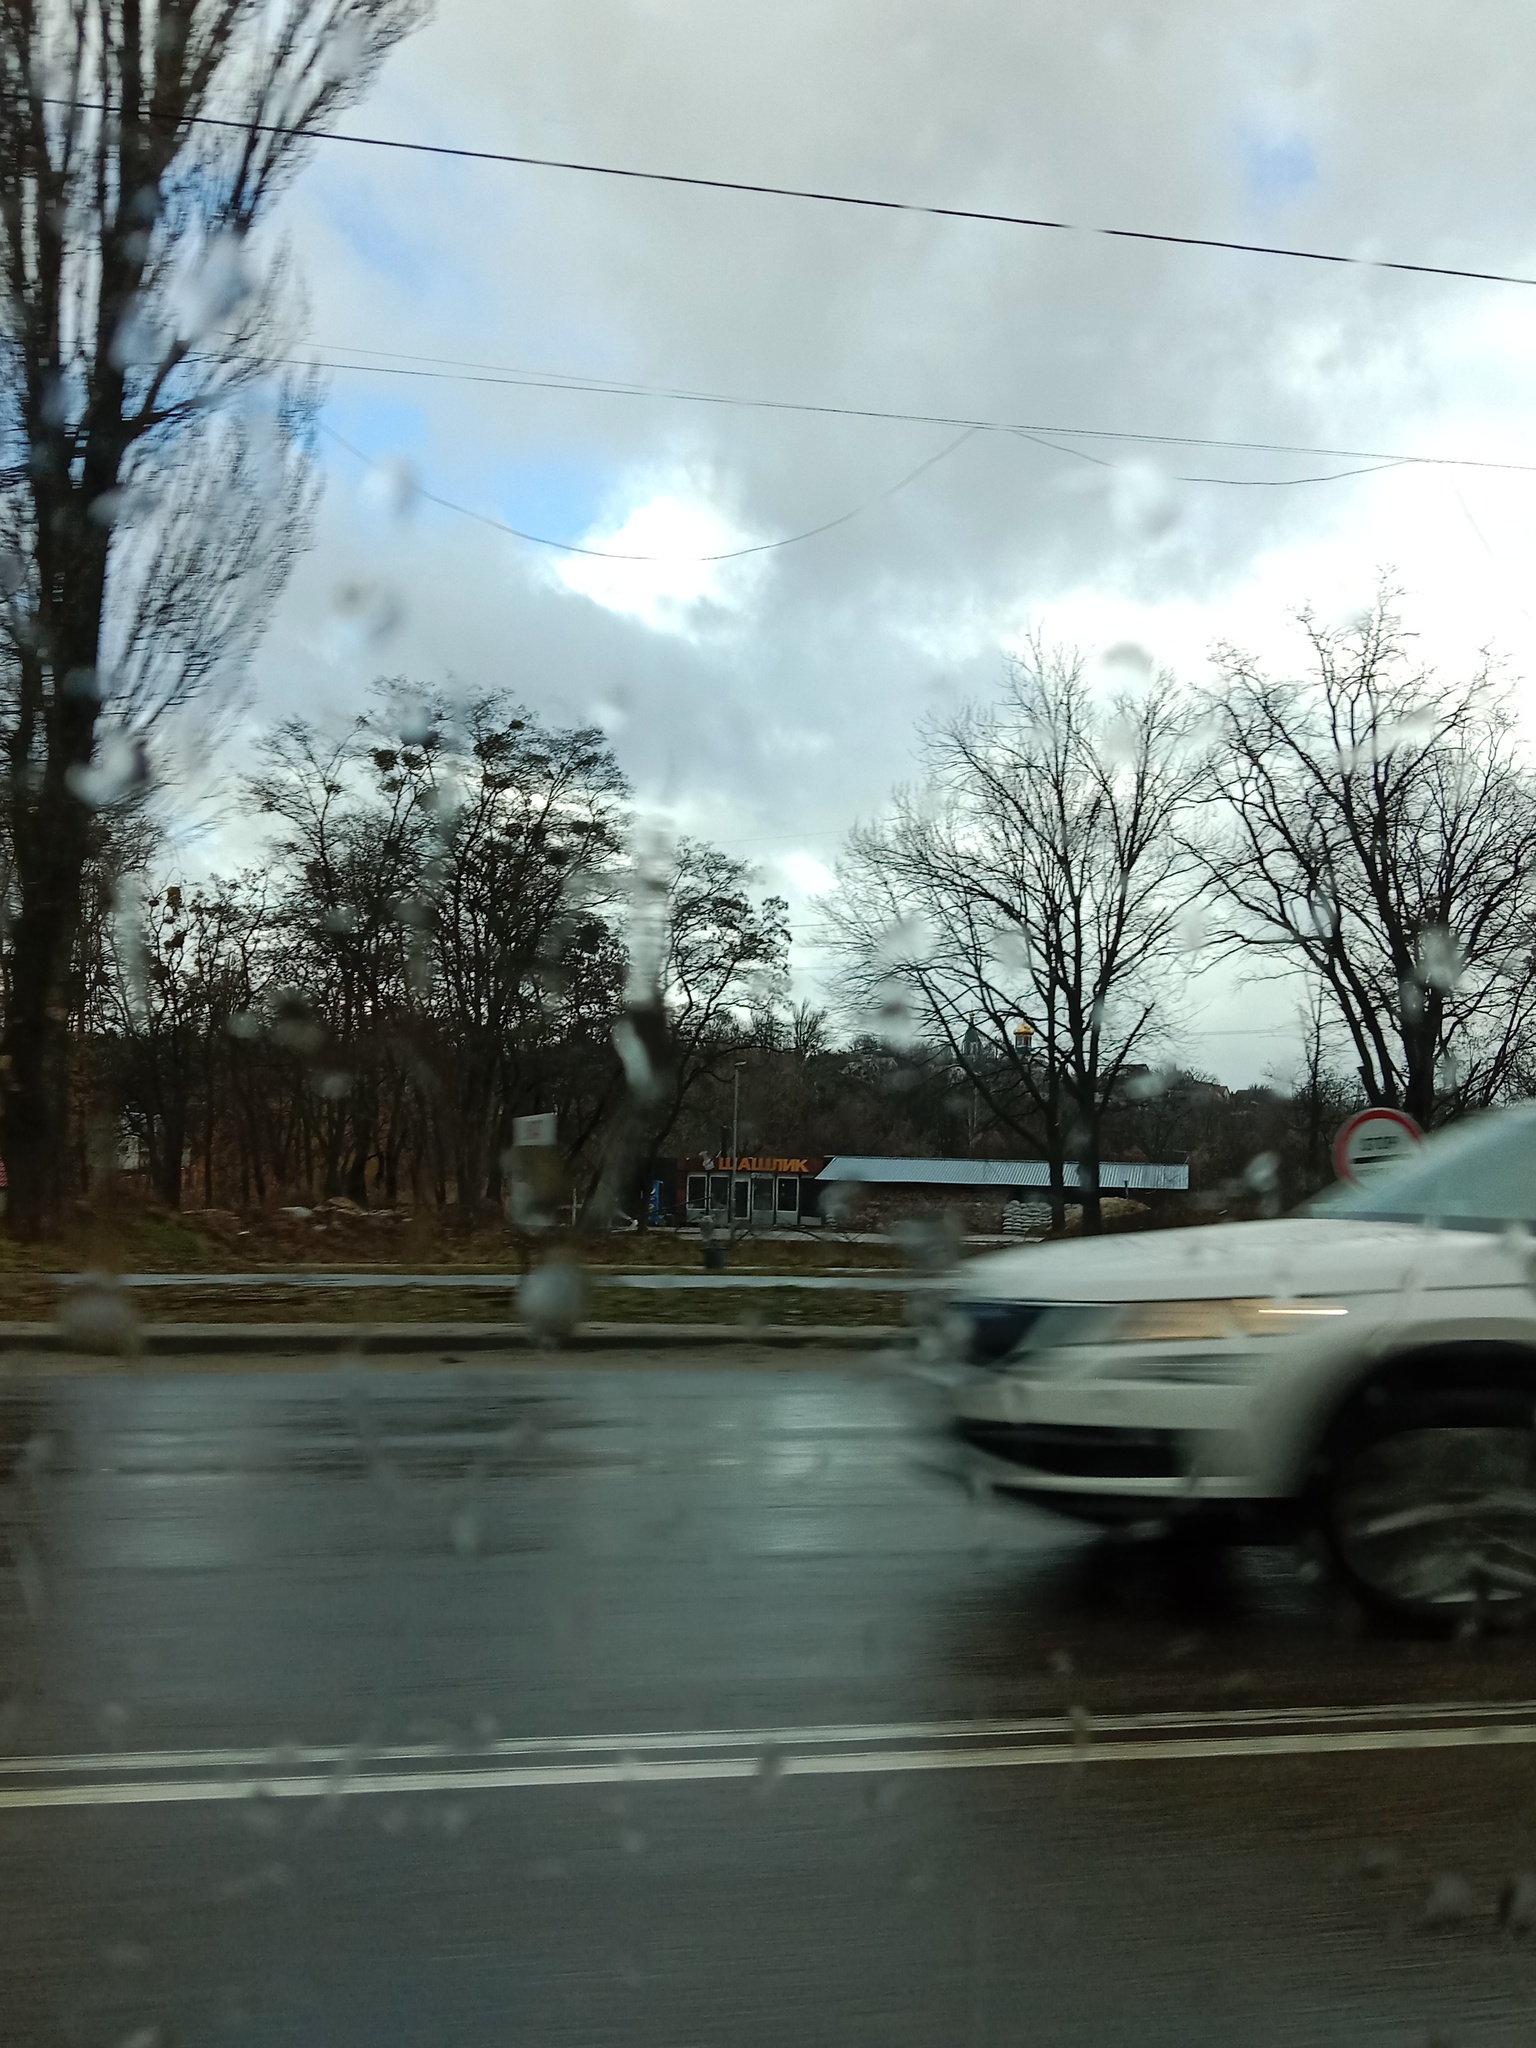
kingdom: Plantae
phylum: Tracheophyta
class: Magnoliopsida
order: Santalales
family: Viscaceae
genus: Viscum
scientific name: Viscum album
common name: Mistletoe
